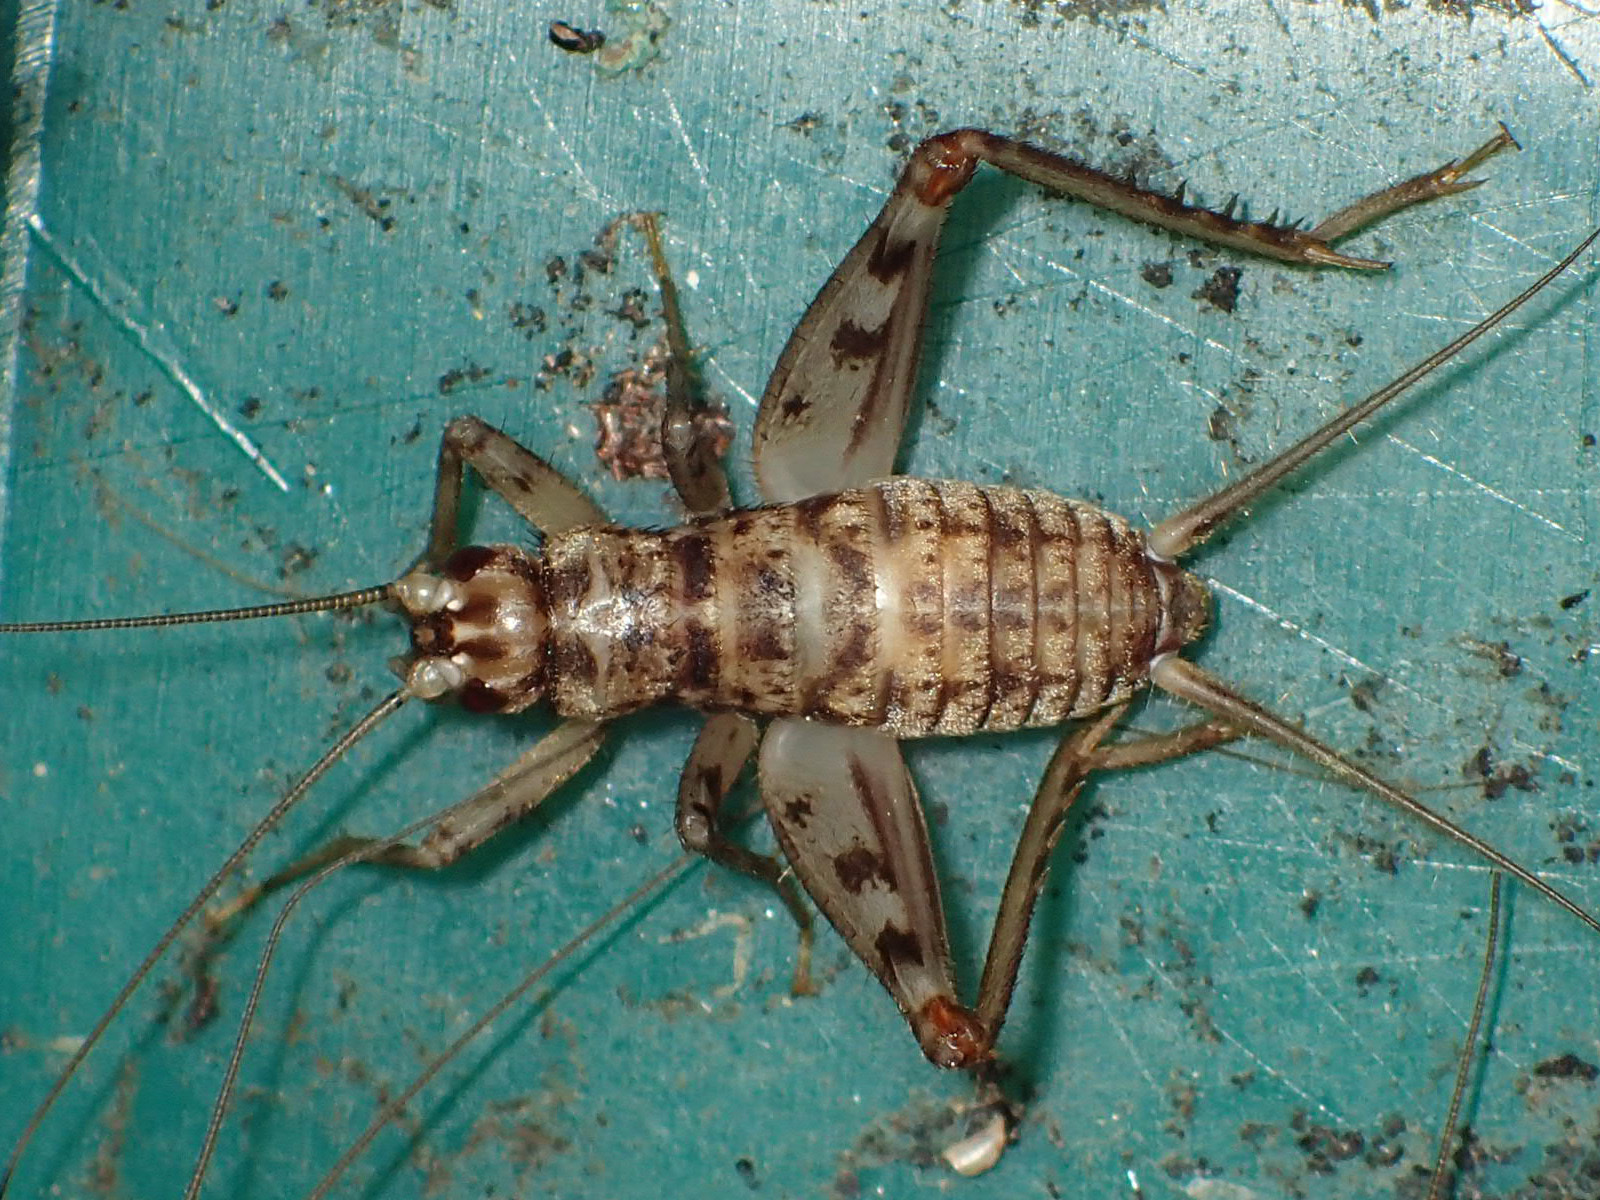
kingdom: Animalia
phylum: Arthropoda
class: Insecta
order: Orthoptera
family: Gryllidae
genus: Gryllomorpha
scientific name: Gryllomorpha dalmatina
